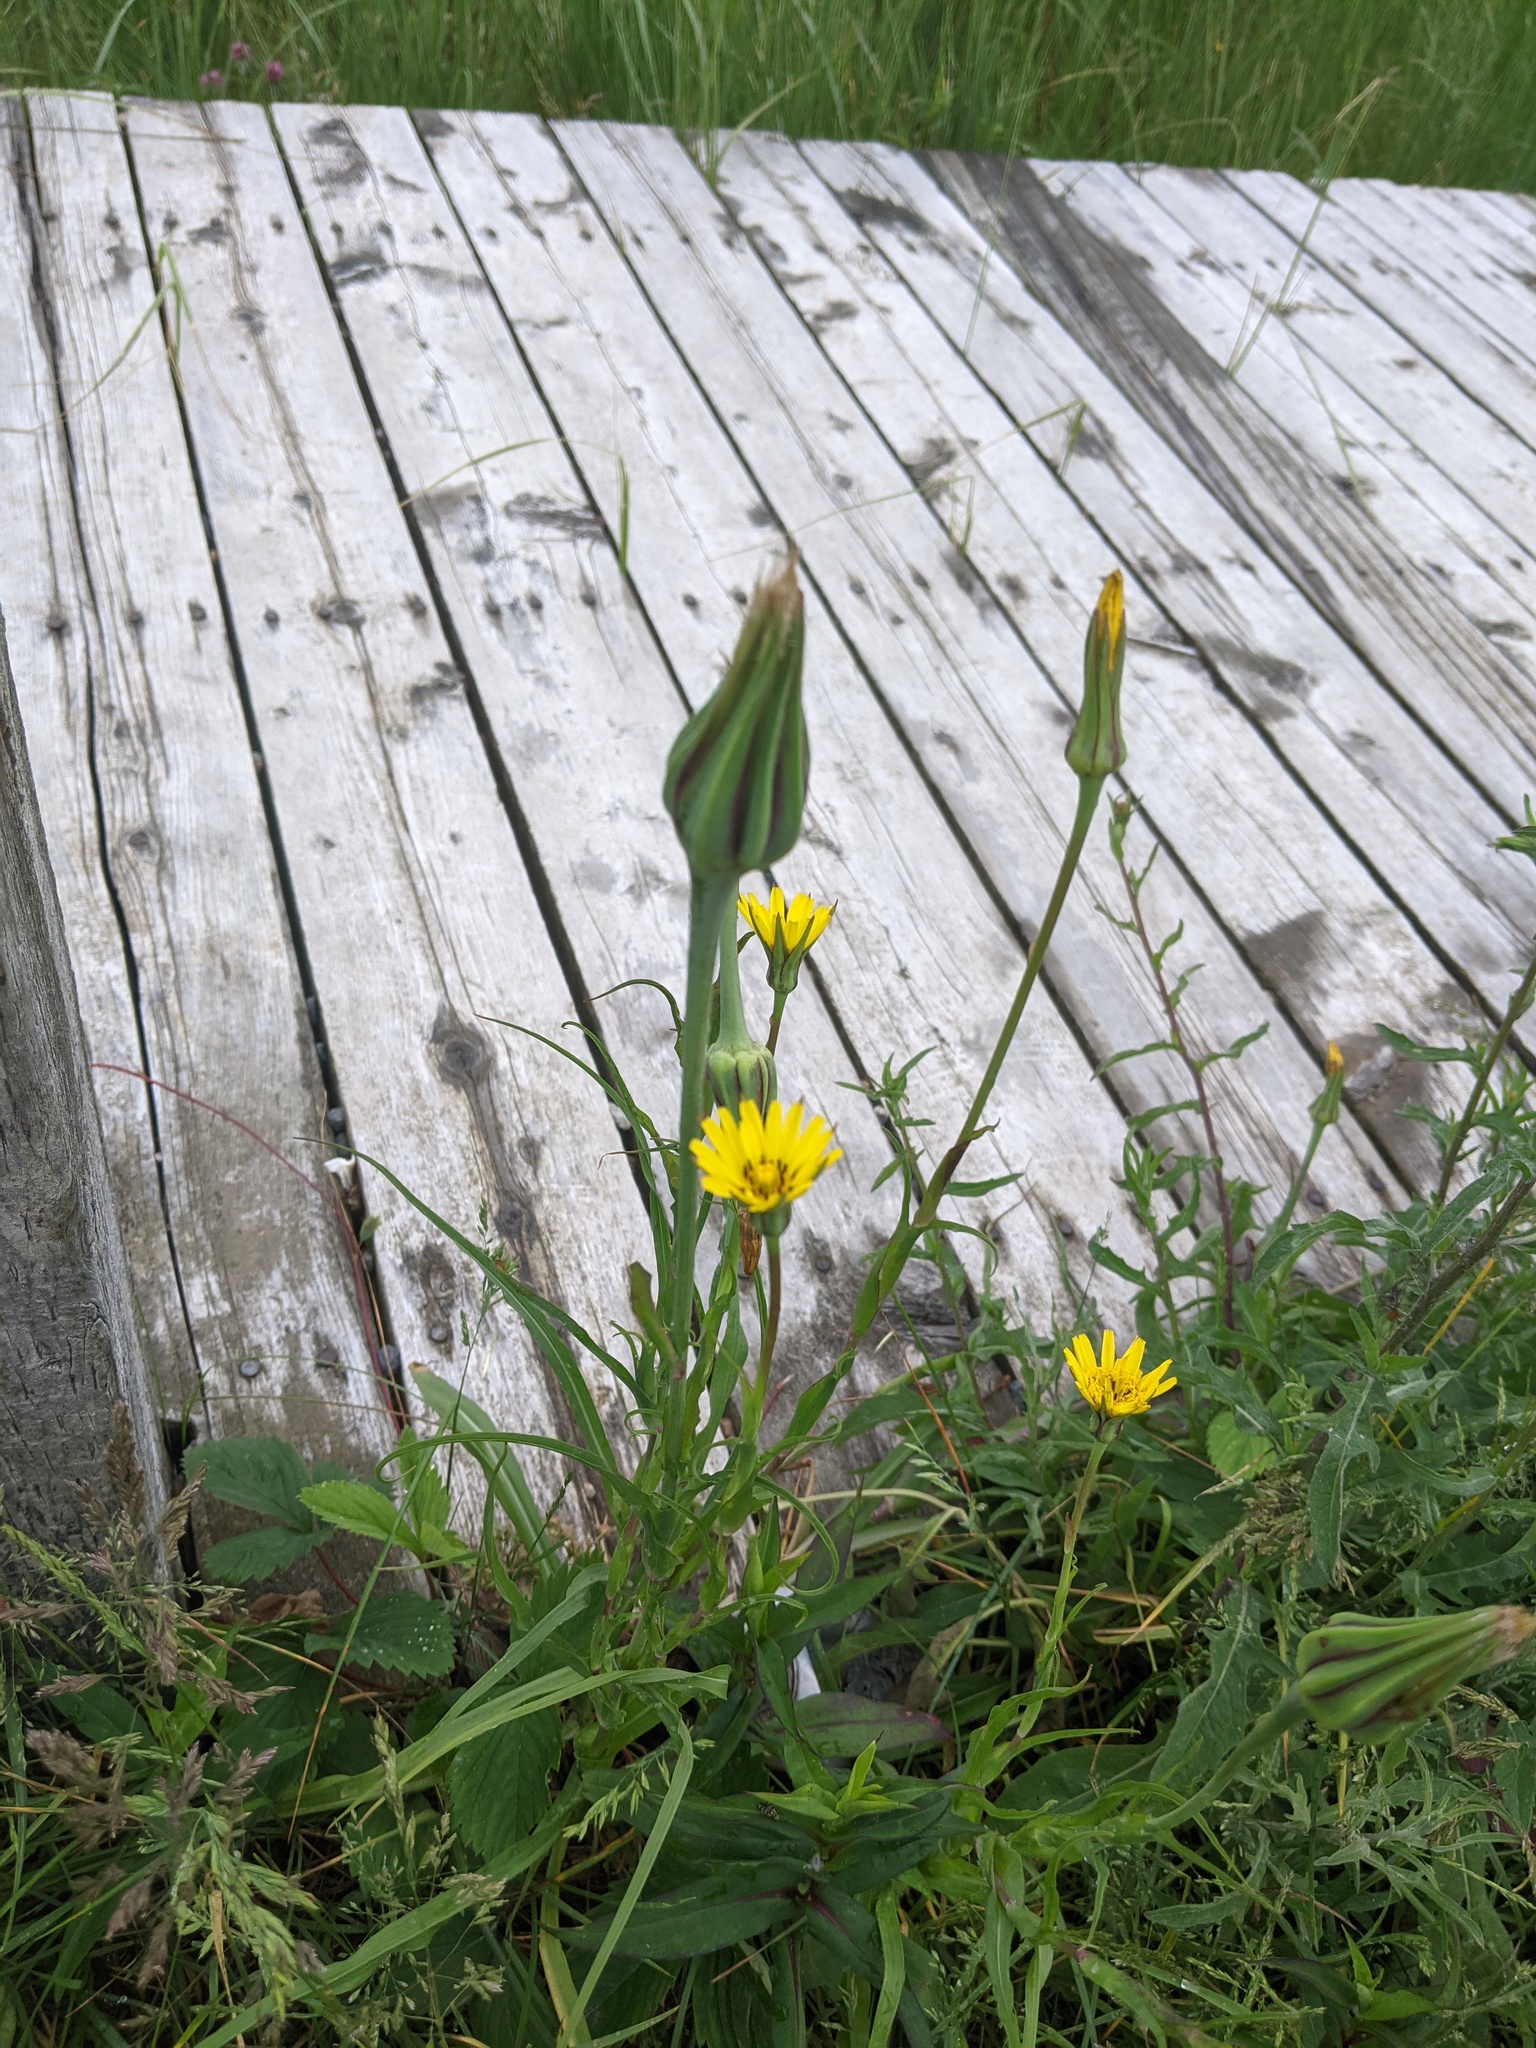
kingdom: Plantae
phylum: Tracheophyta
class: Magnoliopsida
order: Asterales
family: Asteraceae
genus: Tragopogon
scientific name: Tragopogon pratensis
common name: Goat's-beard
